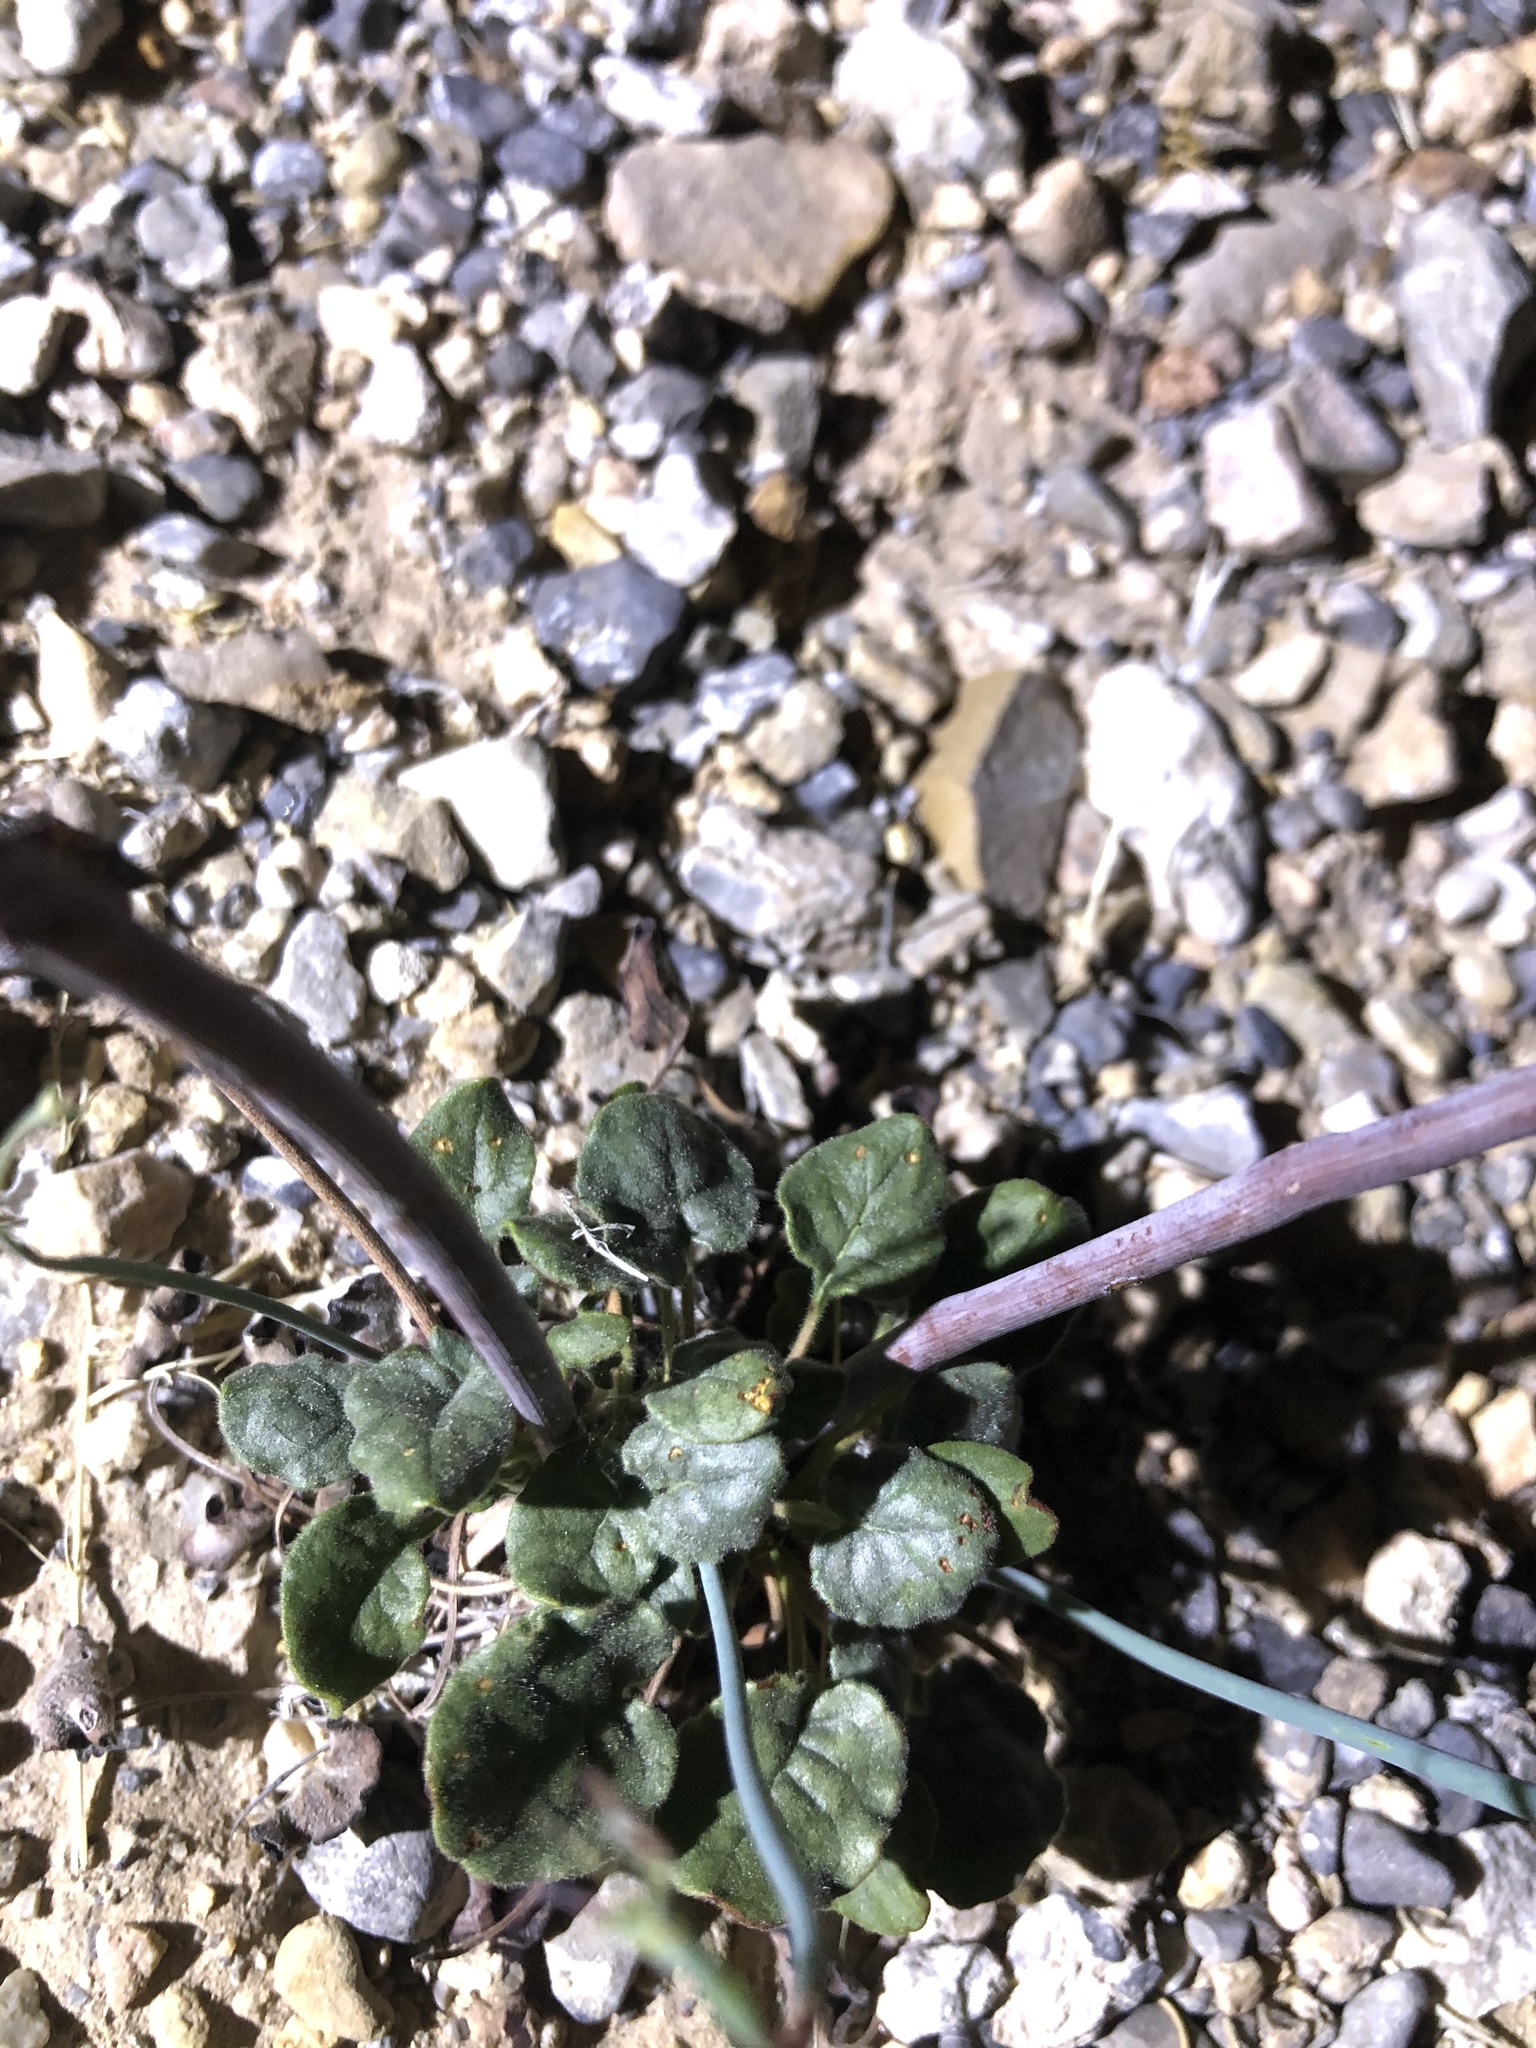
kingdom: Plantae
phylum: Tracheophyta
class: Magnoliopsida
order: Caryophyllales
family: Polygonaceae
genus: Eriogonum
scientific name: Eriogonum inflatum
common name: Desert trumpet
